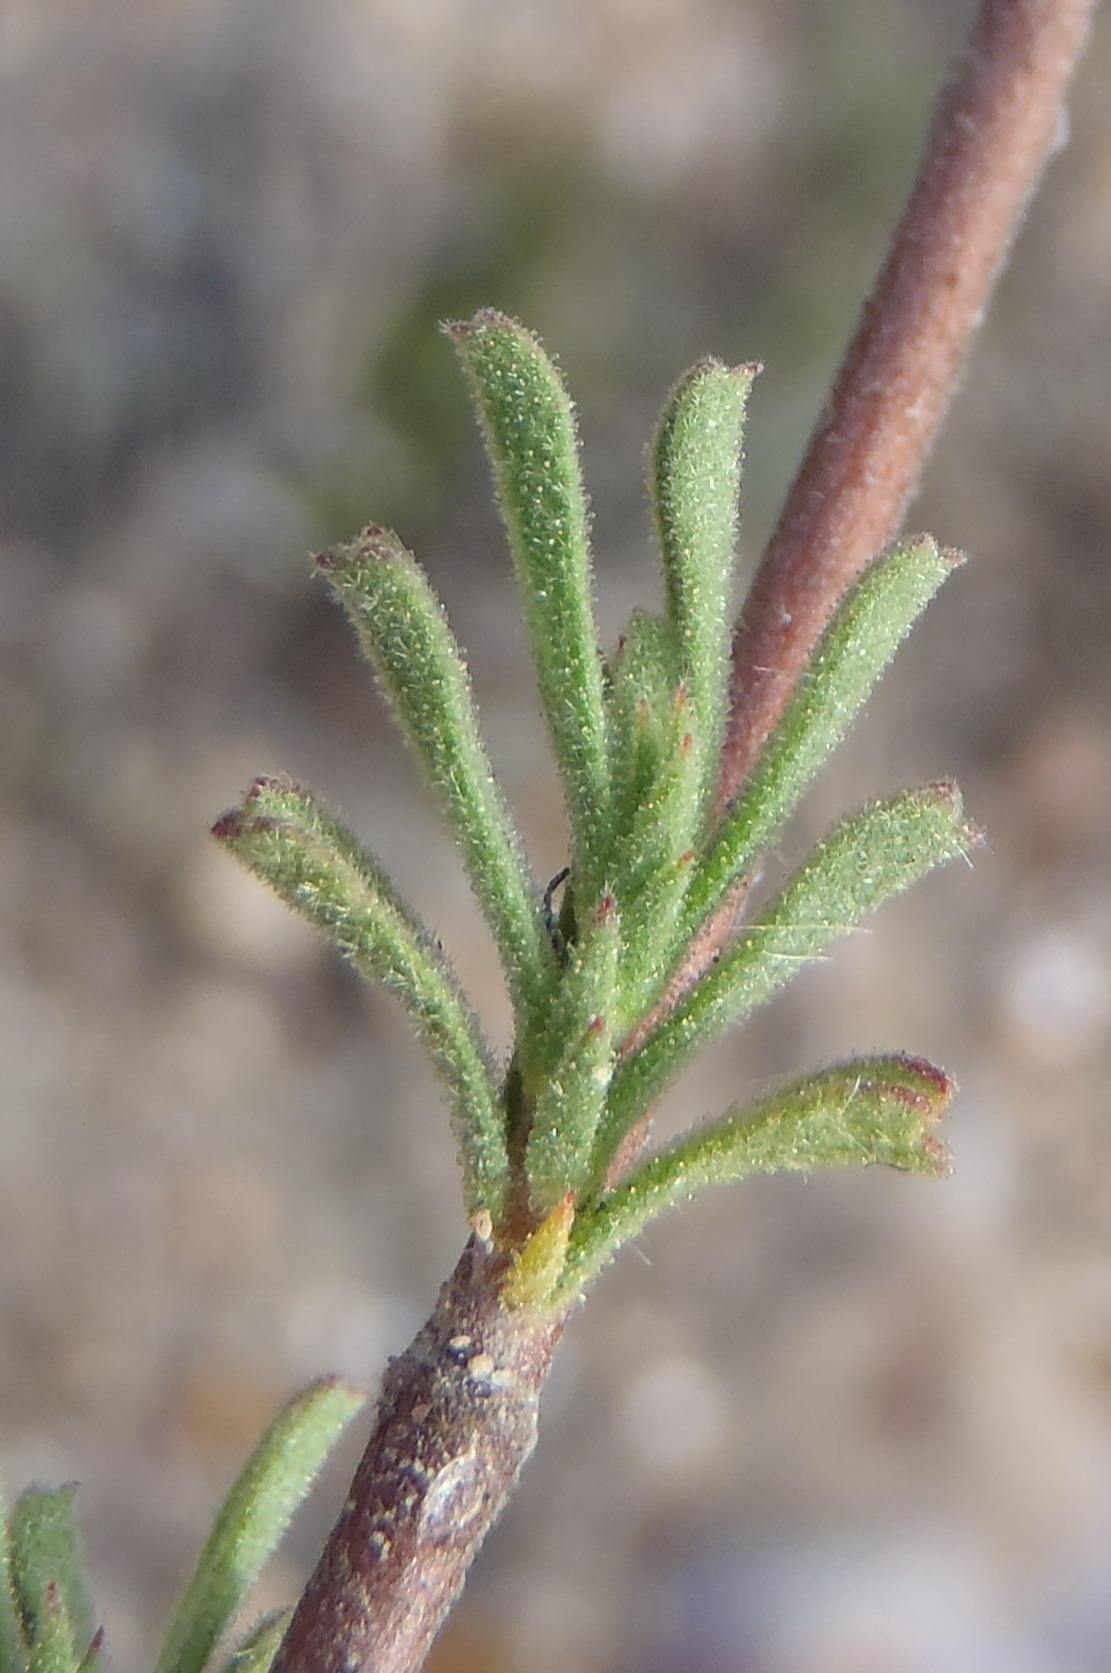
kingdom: Plantae
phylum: Tracheophyta
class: Magnoliopsida
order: Malvales
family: Malvaceae
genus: Hermannia
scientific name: Hermannia flammula
